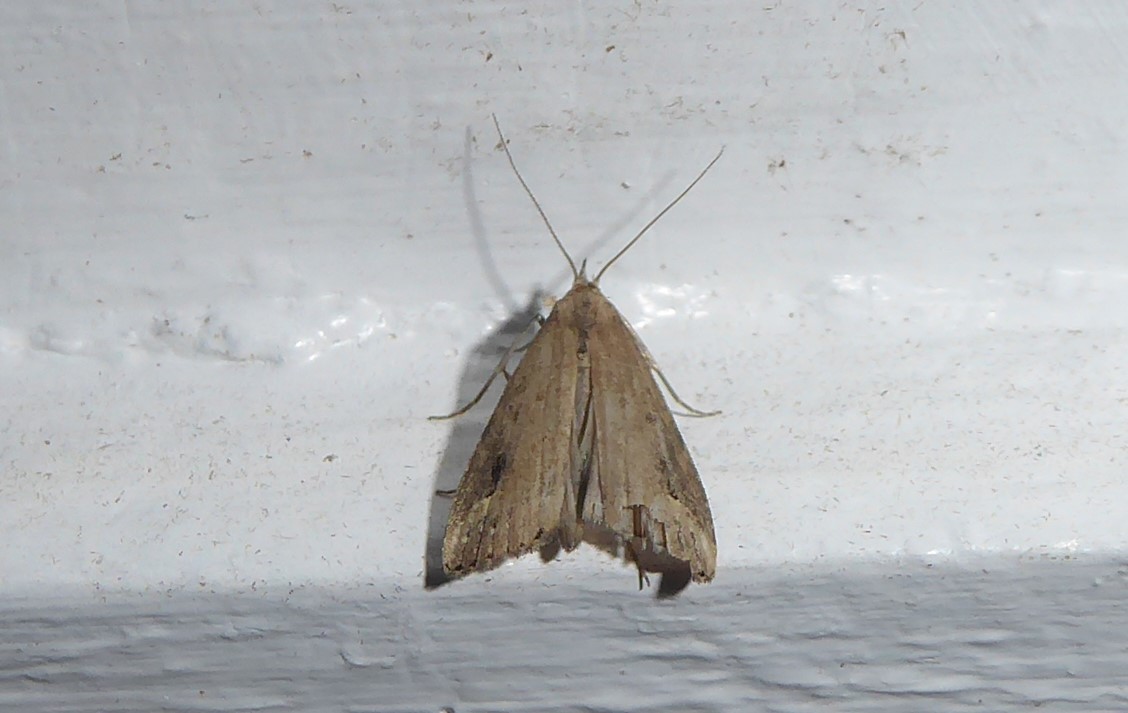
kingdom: Animalia
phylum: Arthropoda
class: Insecta
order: Lepidoptera
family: Erebidae
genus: Schrankia
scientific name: Schrankia costaestrigalis
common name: Pinion-streaked snout
